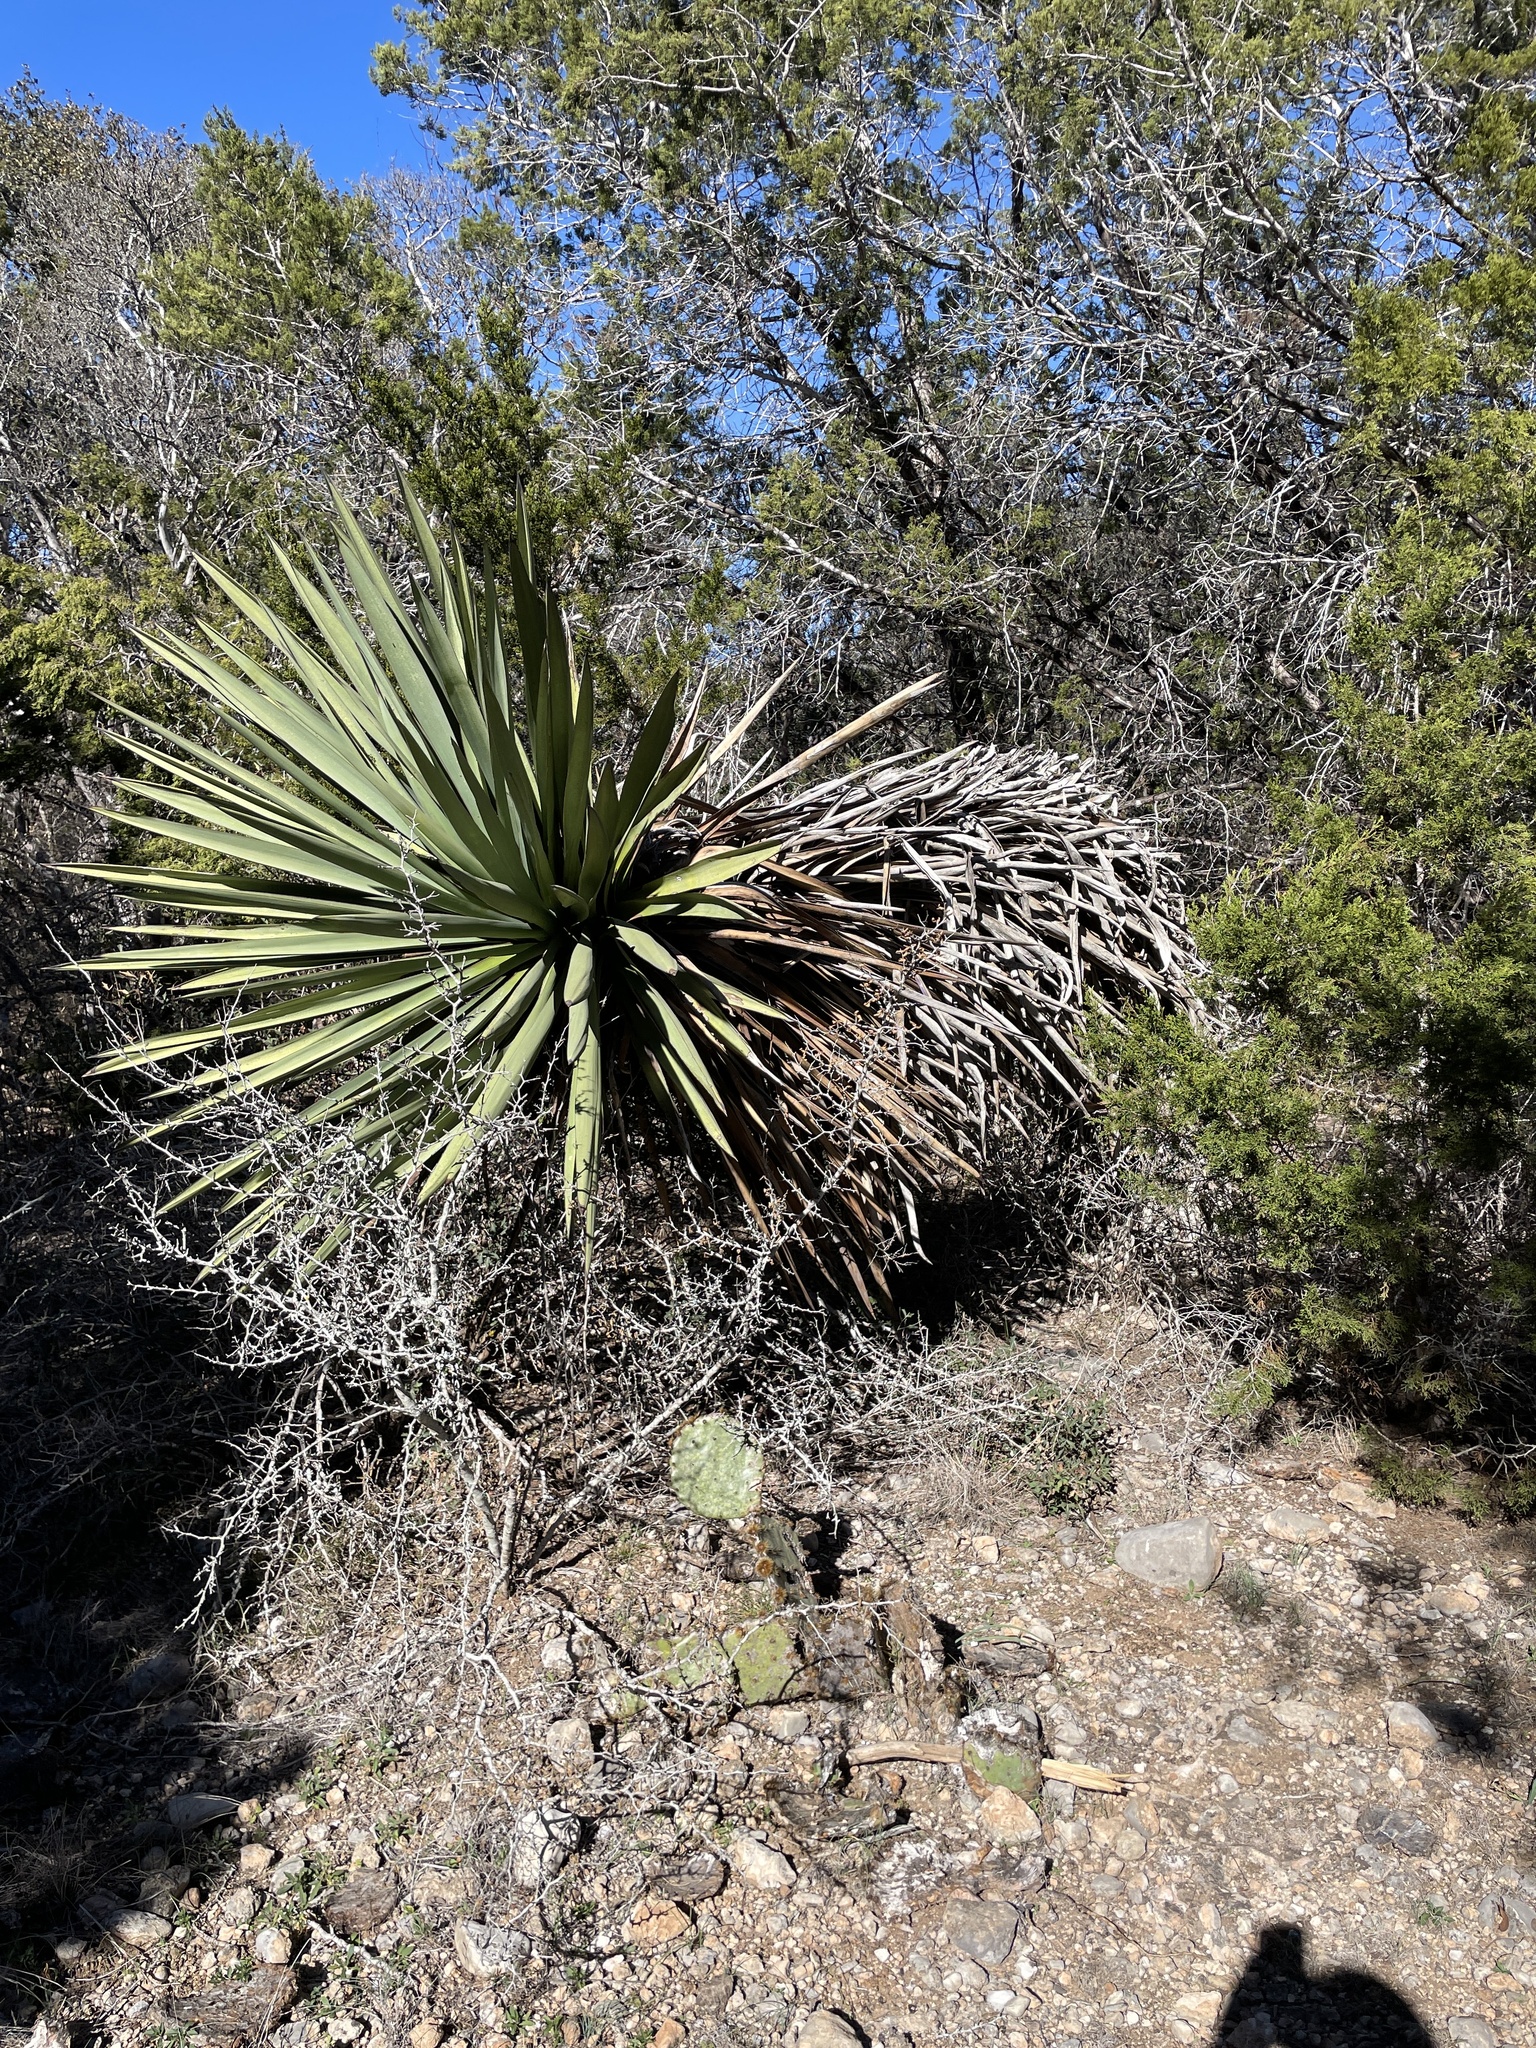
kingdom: Plantae
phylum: Tracheophyta
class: Liliopsida
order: Asparagales
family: Asparagaceae
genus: Yucca
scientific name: Yucca treculiana
